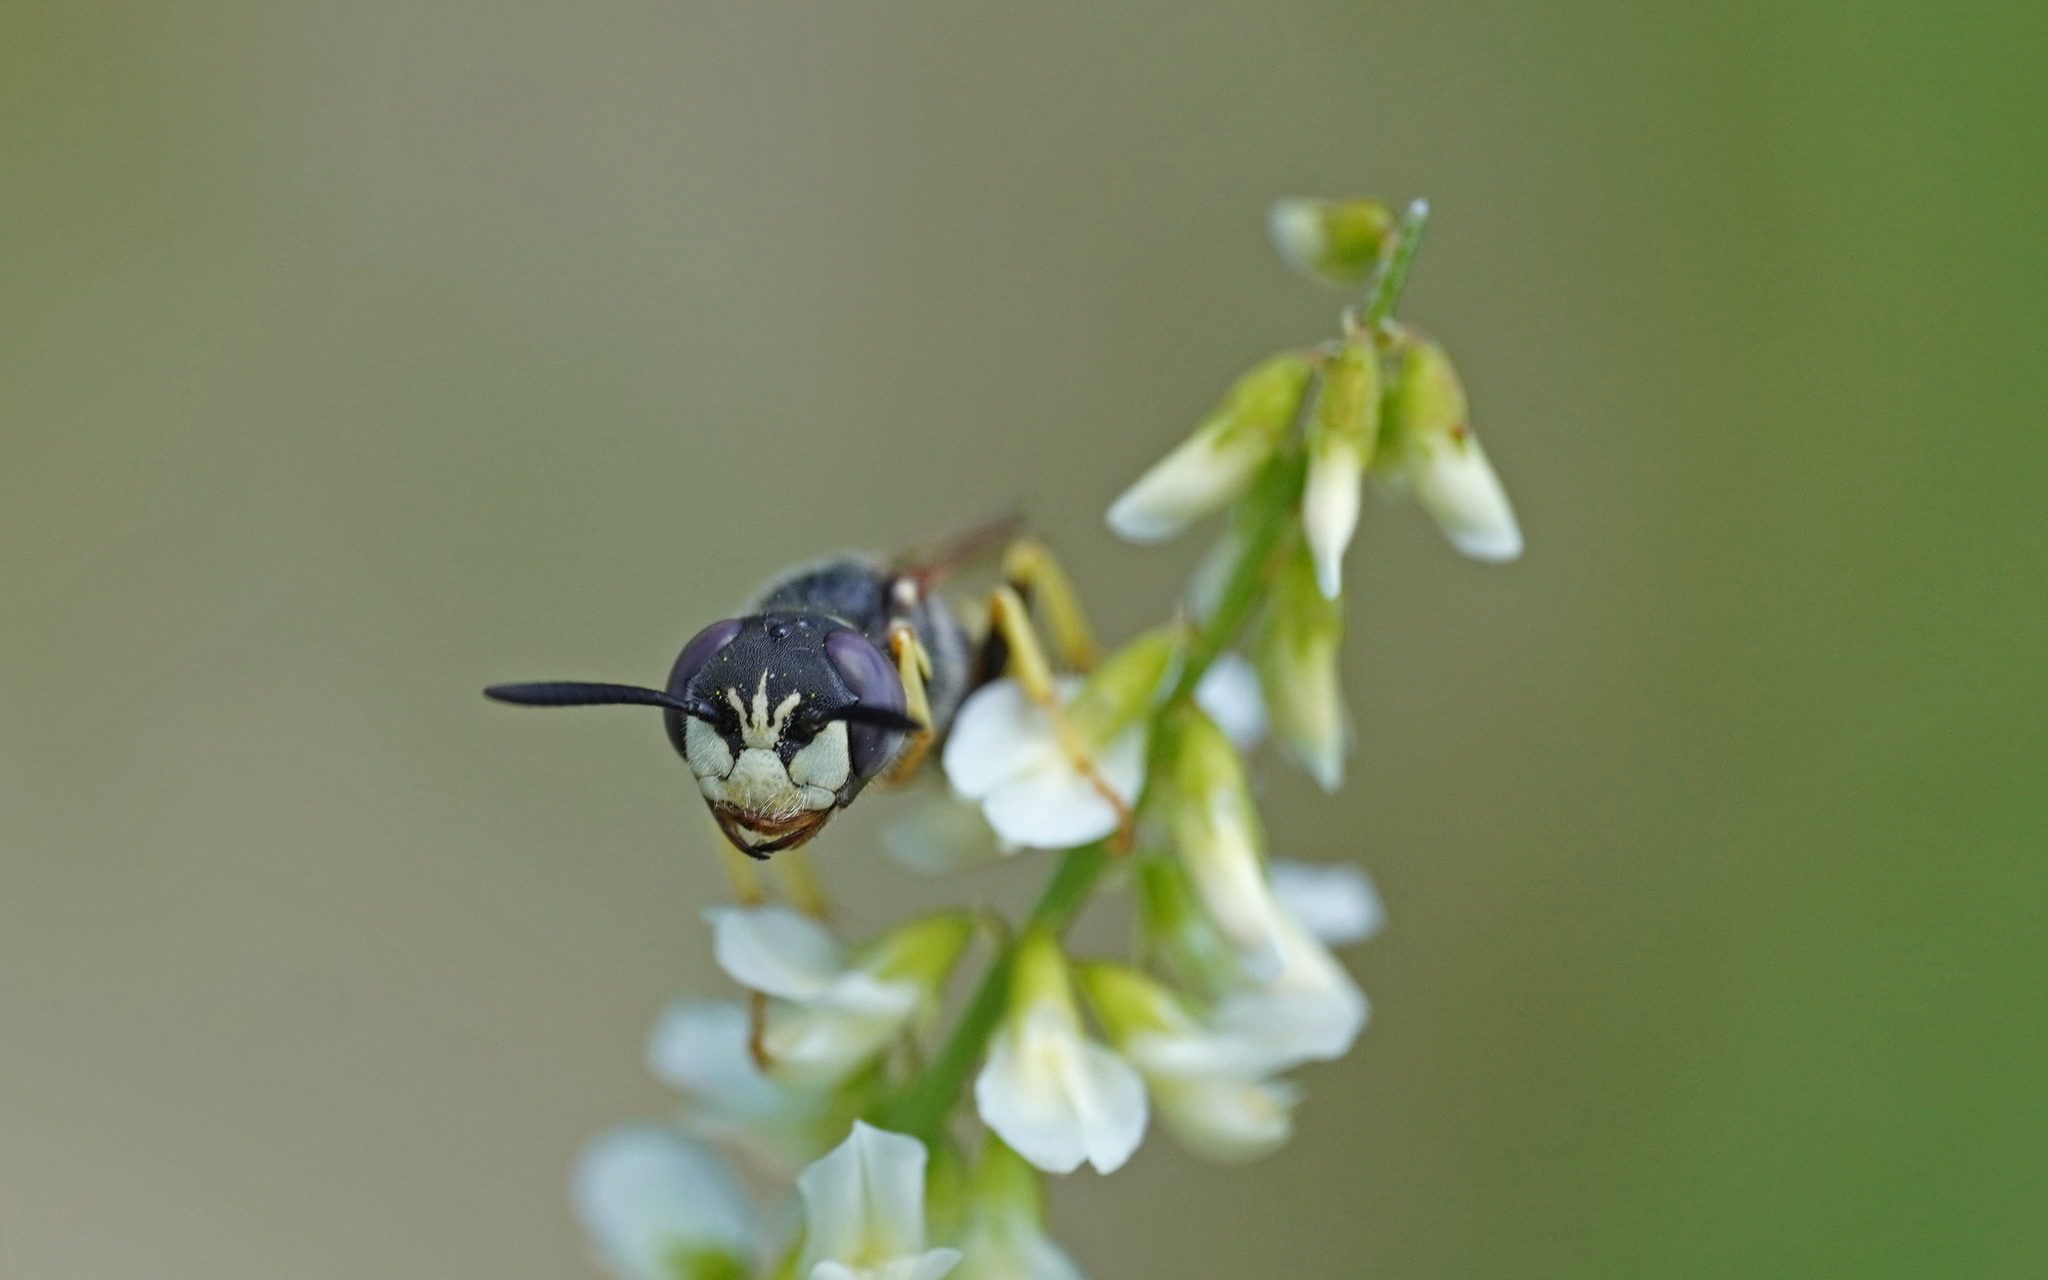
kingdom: Animalia
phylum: Arthropoda
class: Insecta
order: Hymenoptera
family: Crabronidae
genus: Philanthus
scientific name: Philanthus triangulum
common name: Bee wolf
